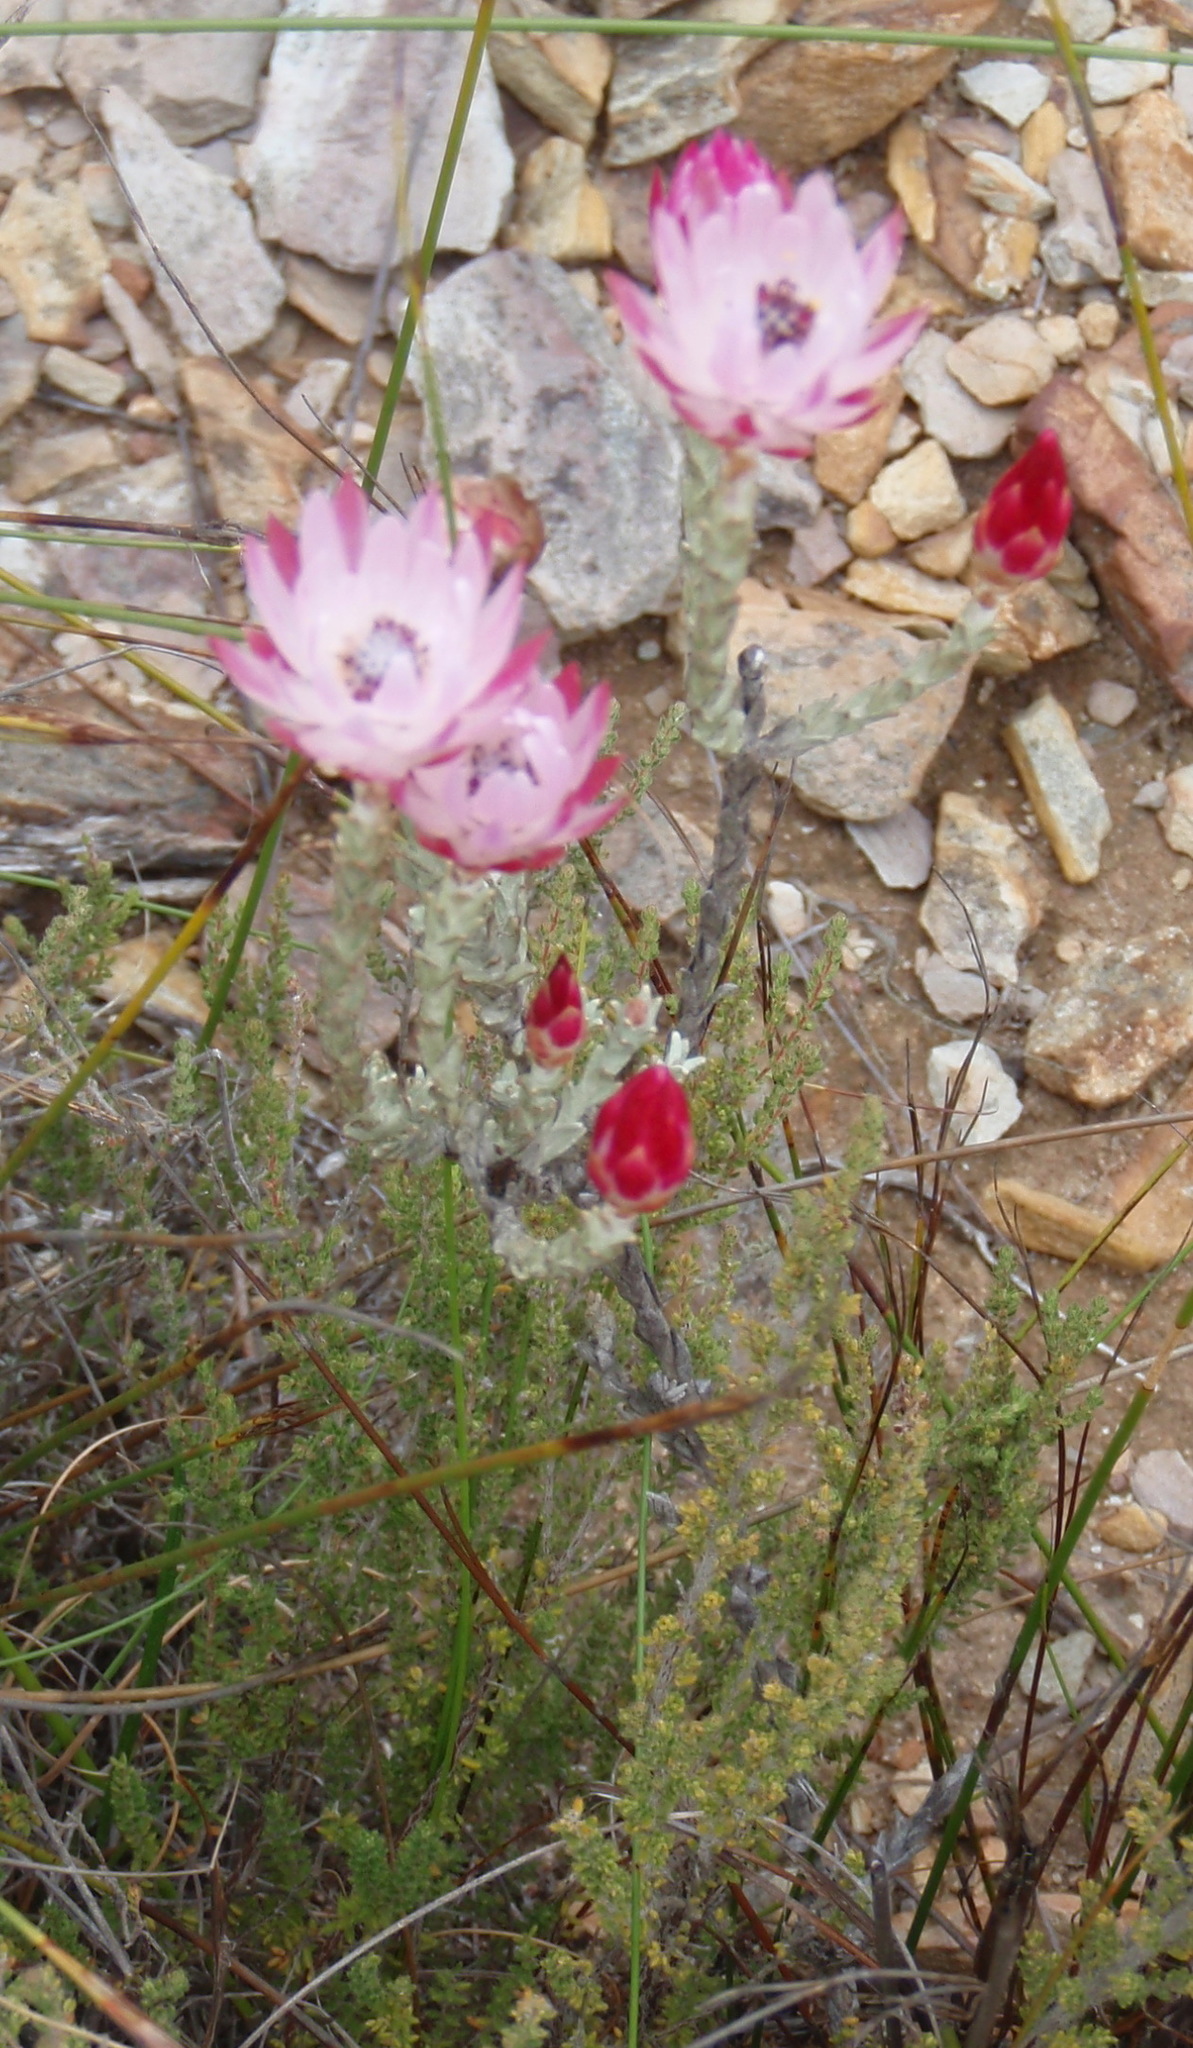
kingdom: Plantae
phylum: Tracheophyta
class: Magnoliopsida
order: Asterales
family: Asteraceae
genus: Syncarpha
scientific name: Syncarpha canescens
